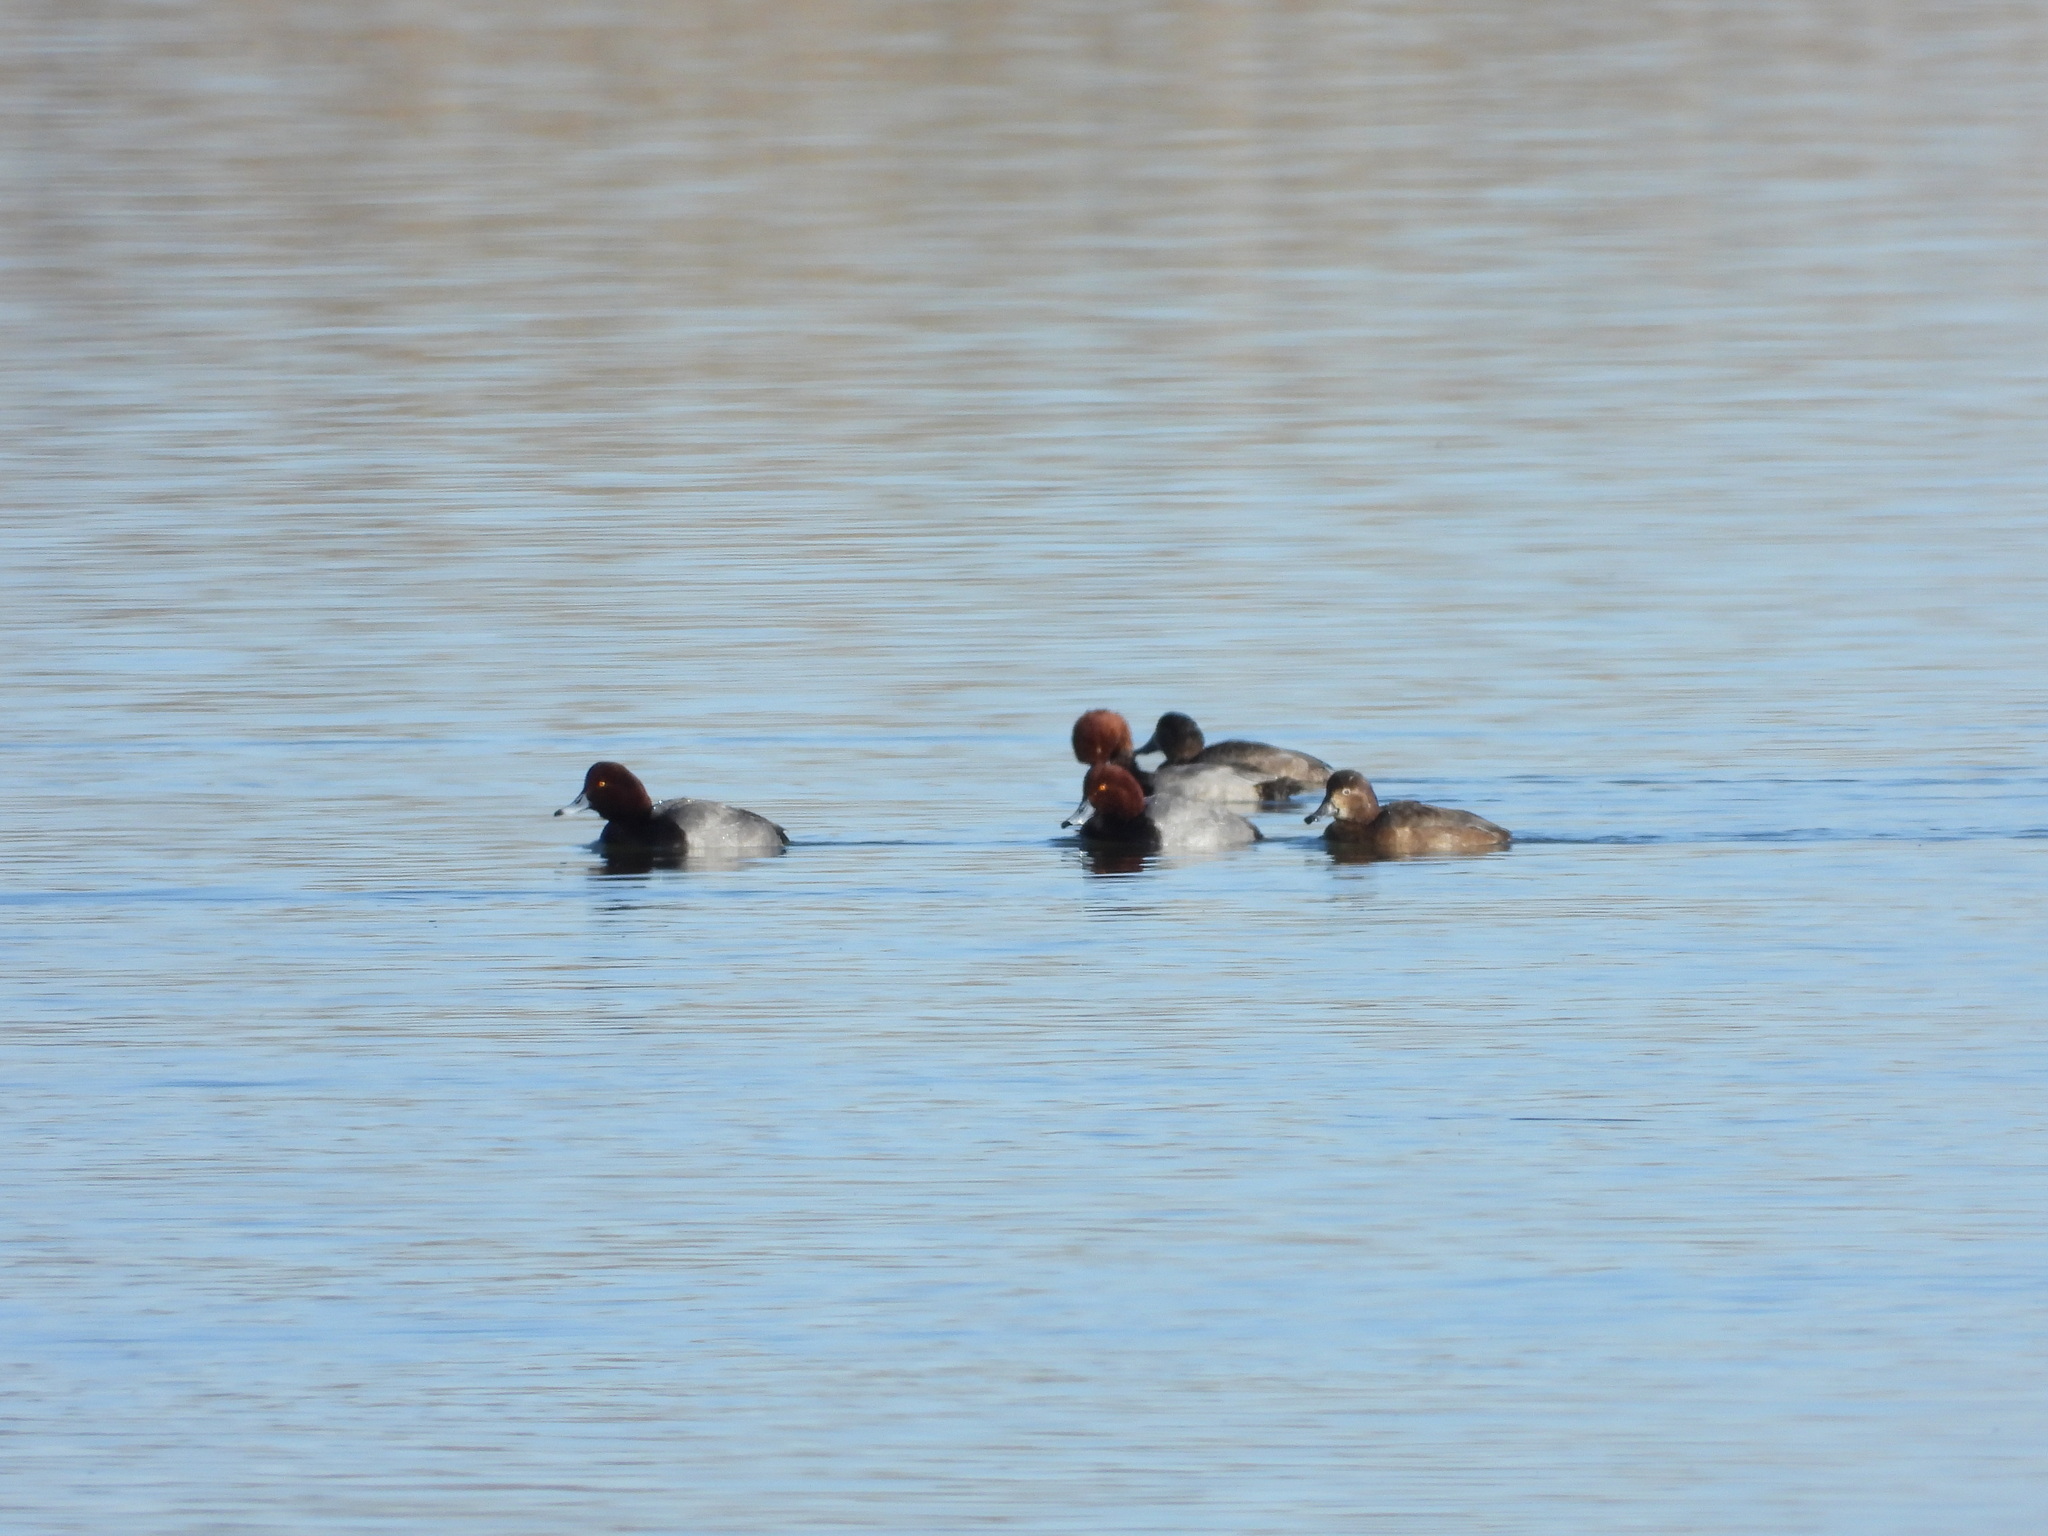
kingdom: Animalia
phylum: Chordata
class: Aves
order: Anseriformes
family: Anatidae
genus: Aythya
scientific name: Aythya americana
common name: Redhead
